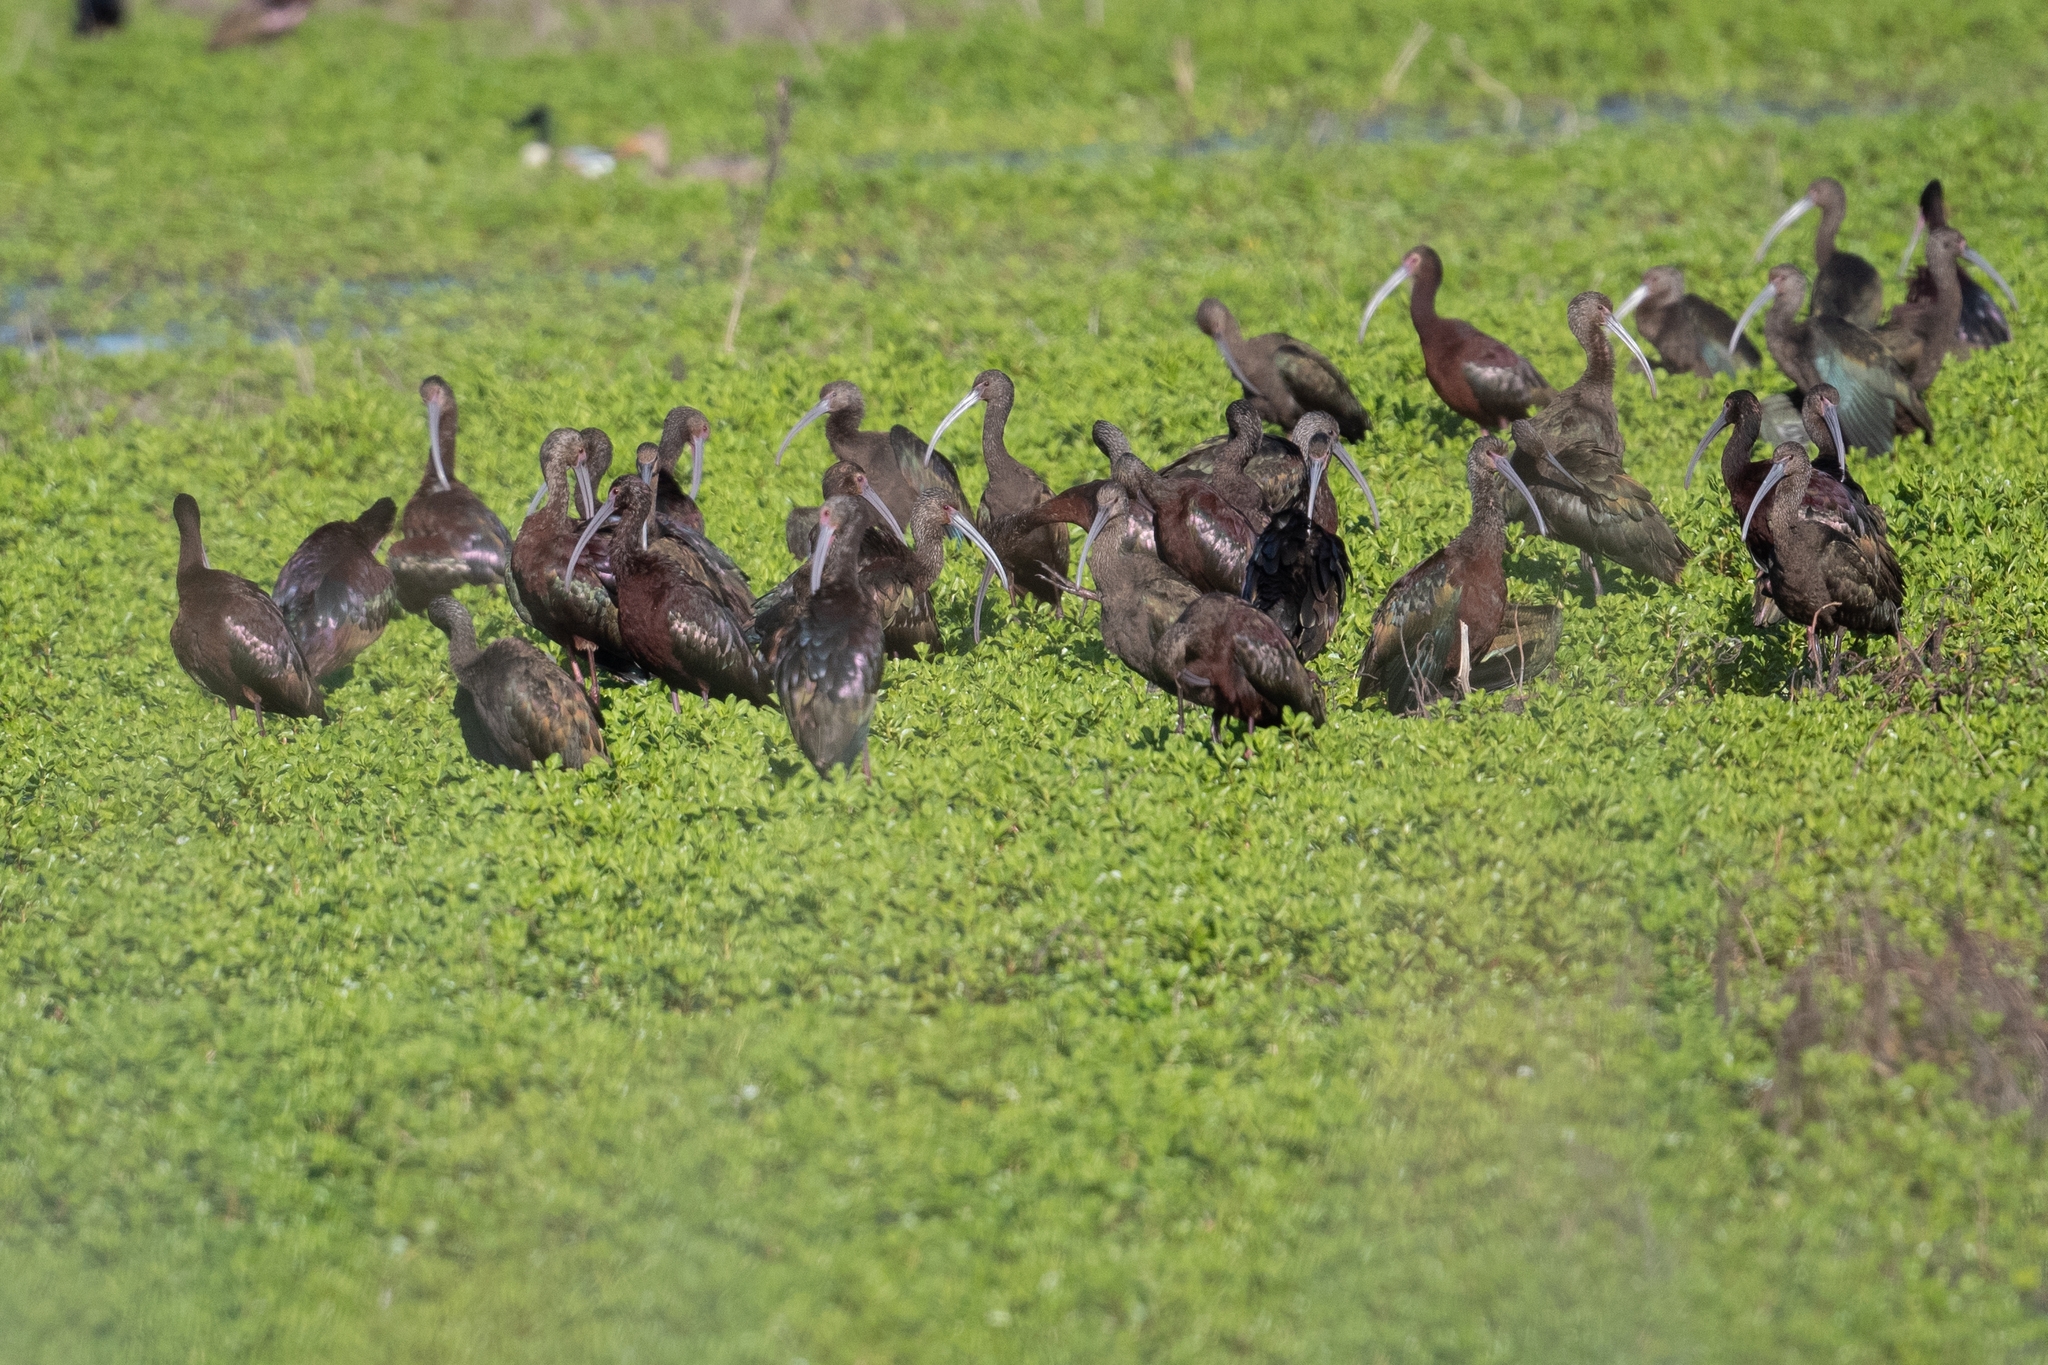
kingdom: Animalia
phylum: Chordata
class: Aves
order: Pelecaniformes
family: Threskiornithidae
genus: Plegadis
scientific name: Plegadis chihi
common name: White-faced ibis
